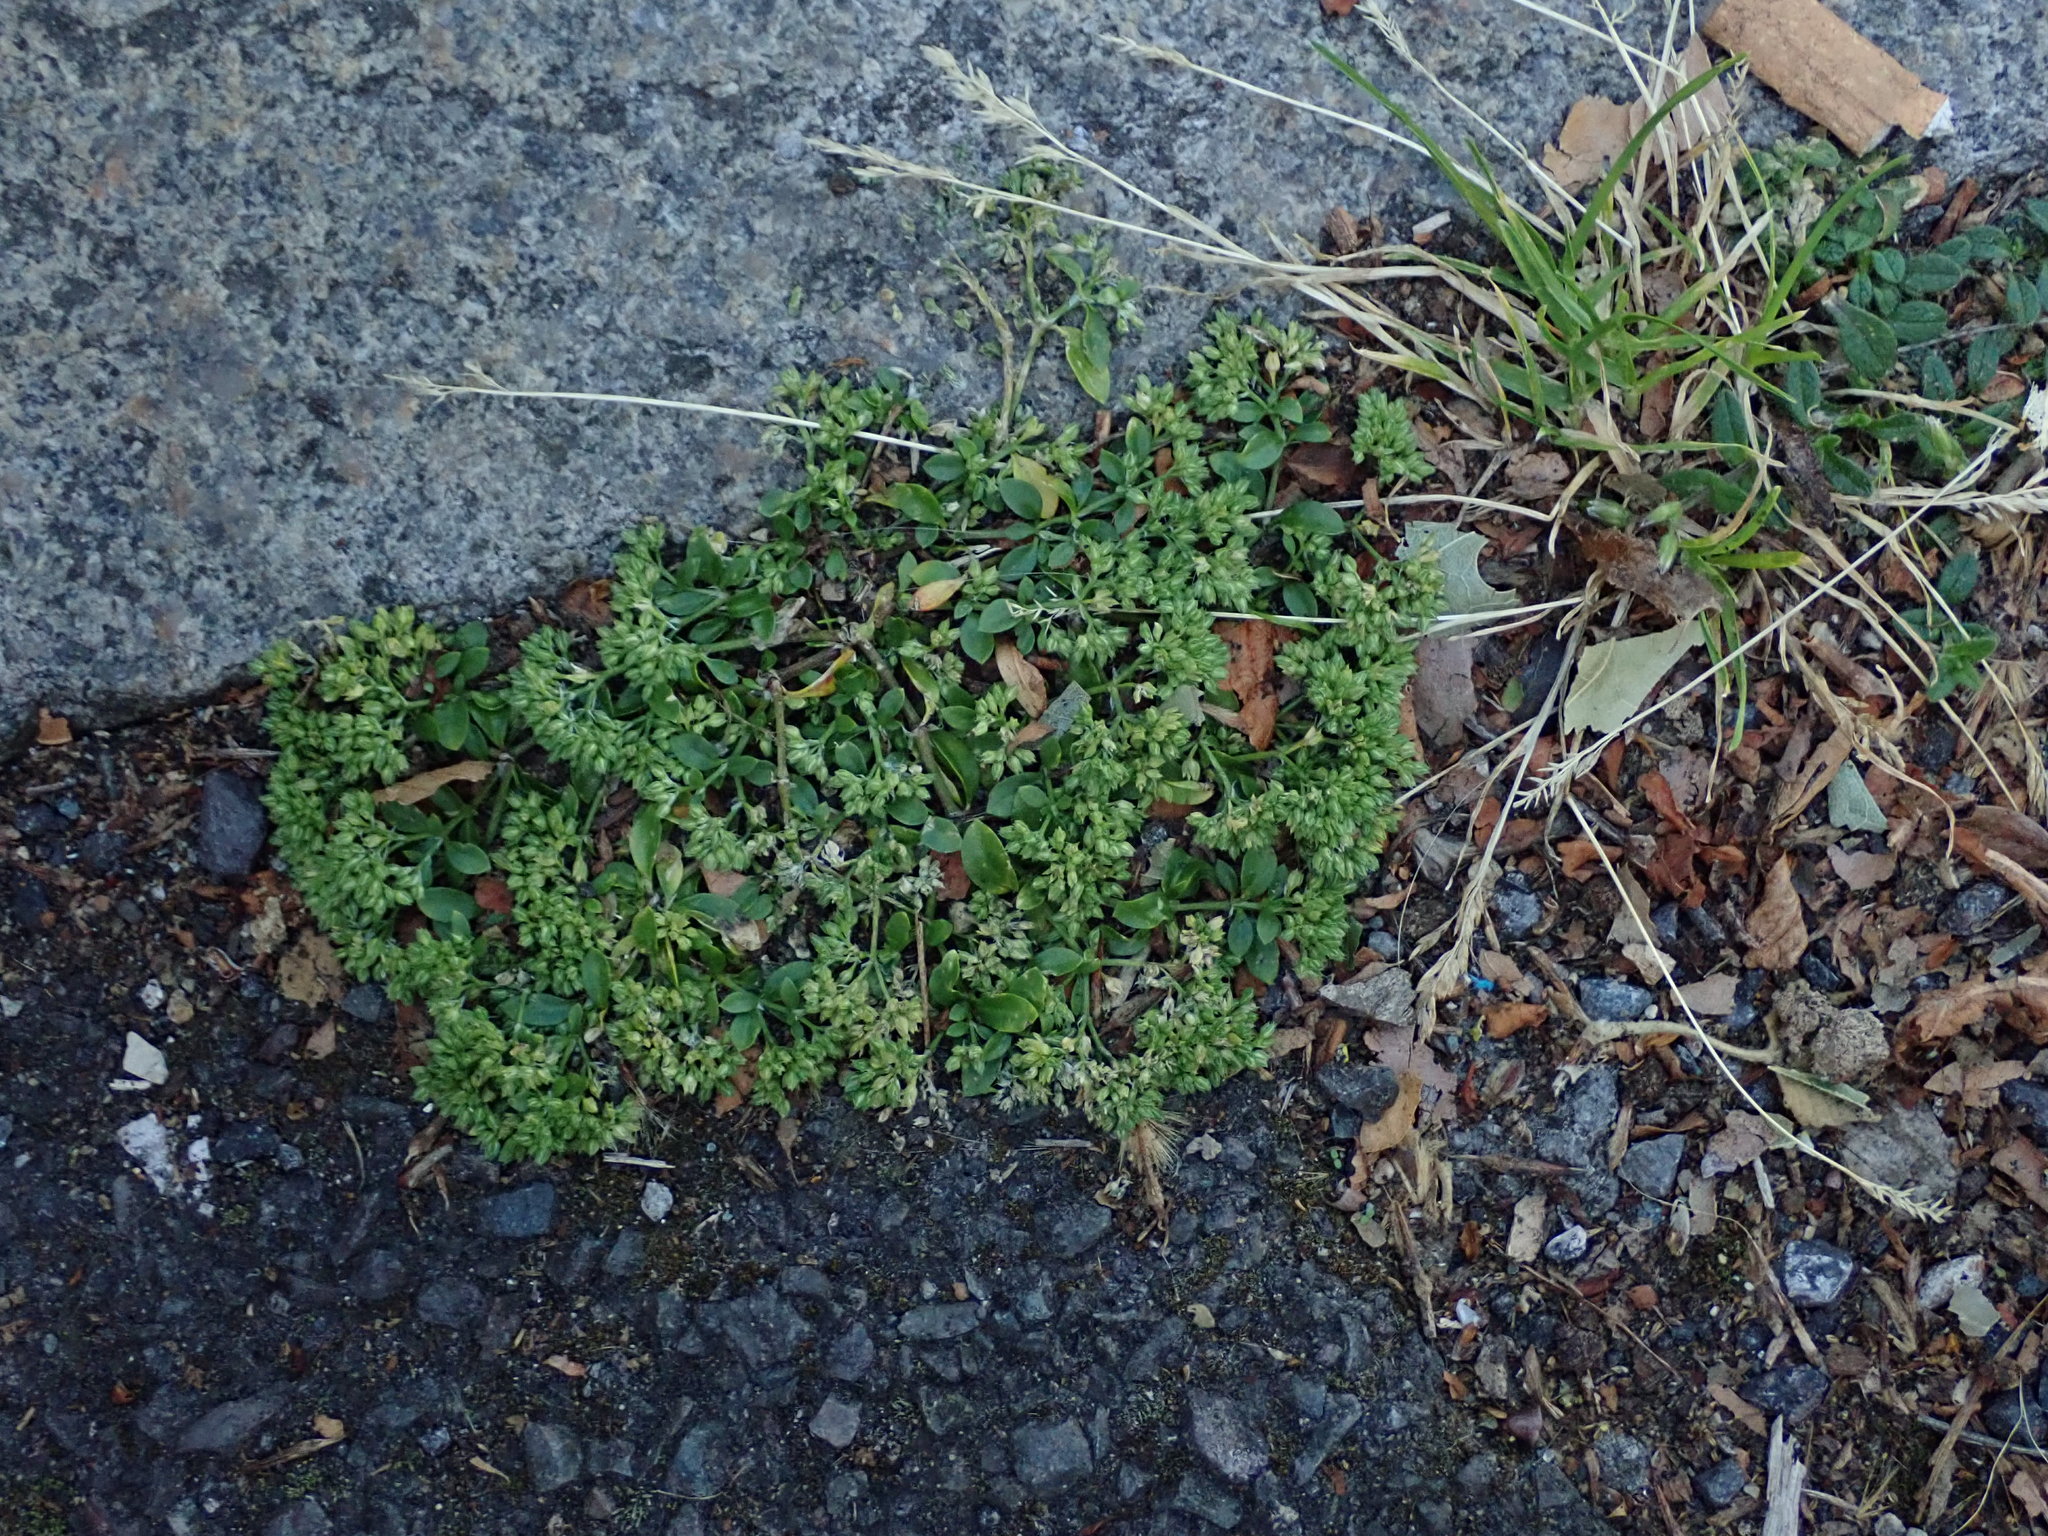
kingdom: Plantae
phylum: Tracheophyta
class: Magnoliopsida
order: Caryophyllales
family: Caryophyllaceae
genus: Polycarpon
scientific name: Polycarpon tetraphyllum
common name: Four-leaved all-seed
